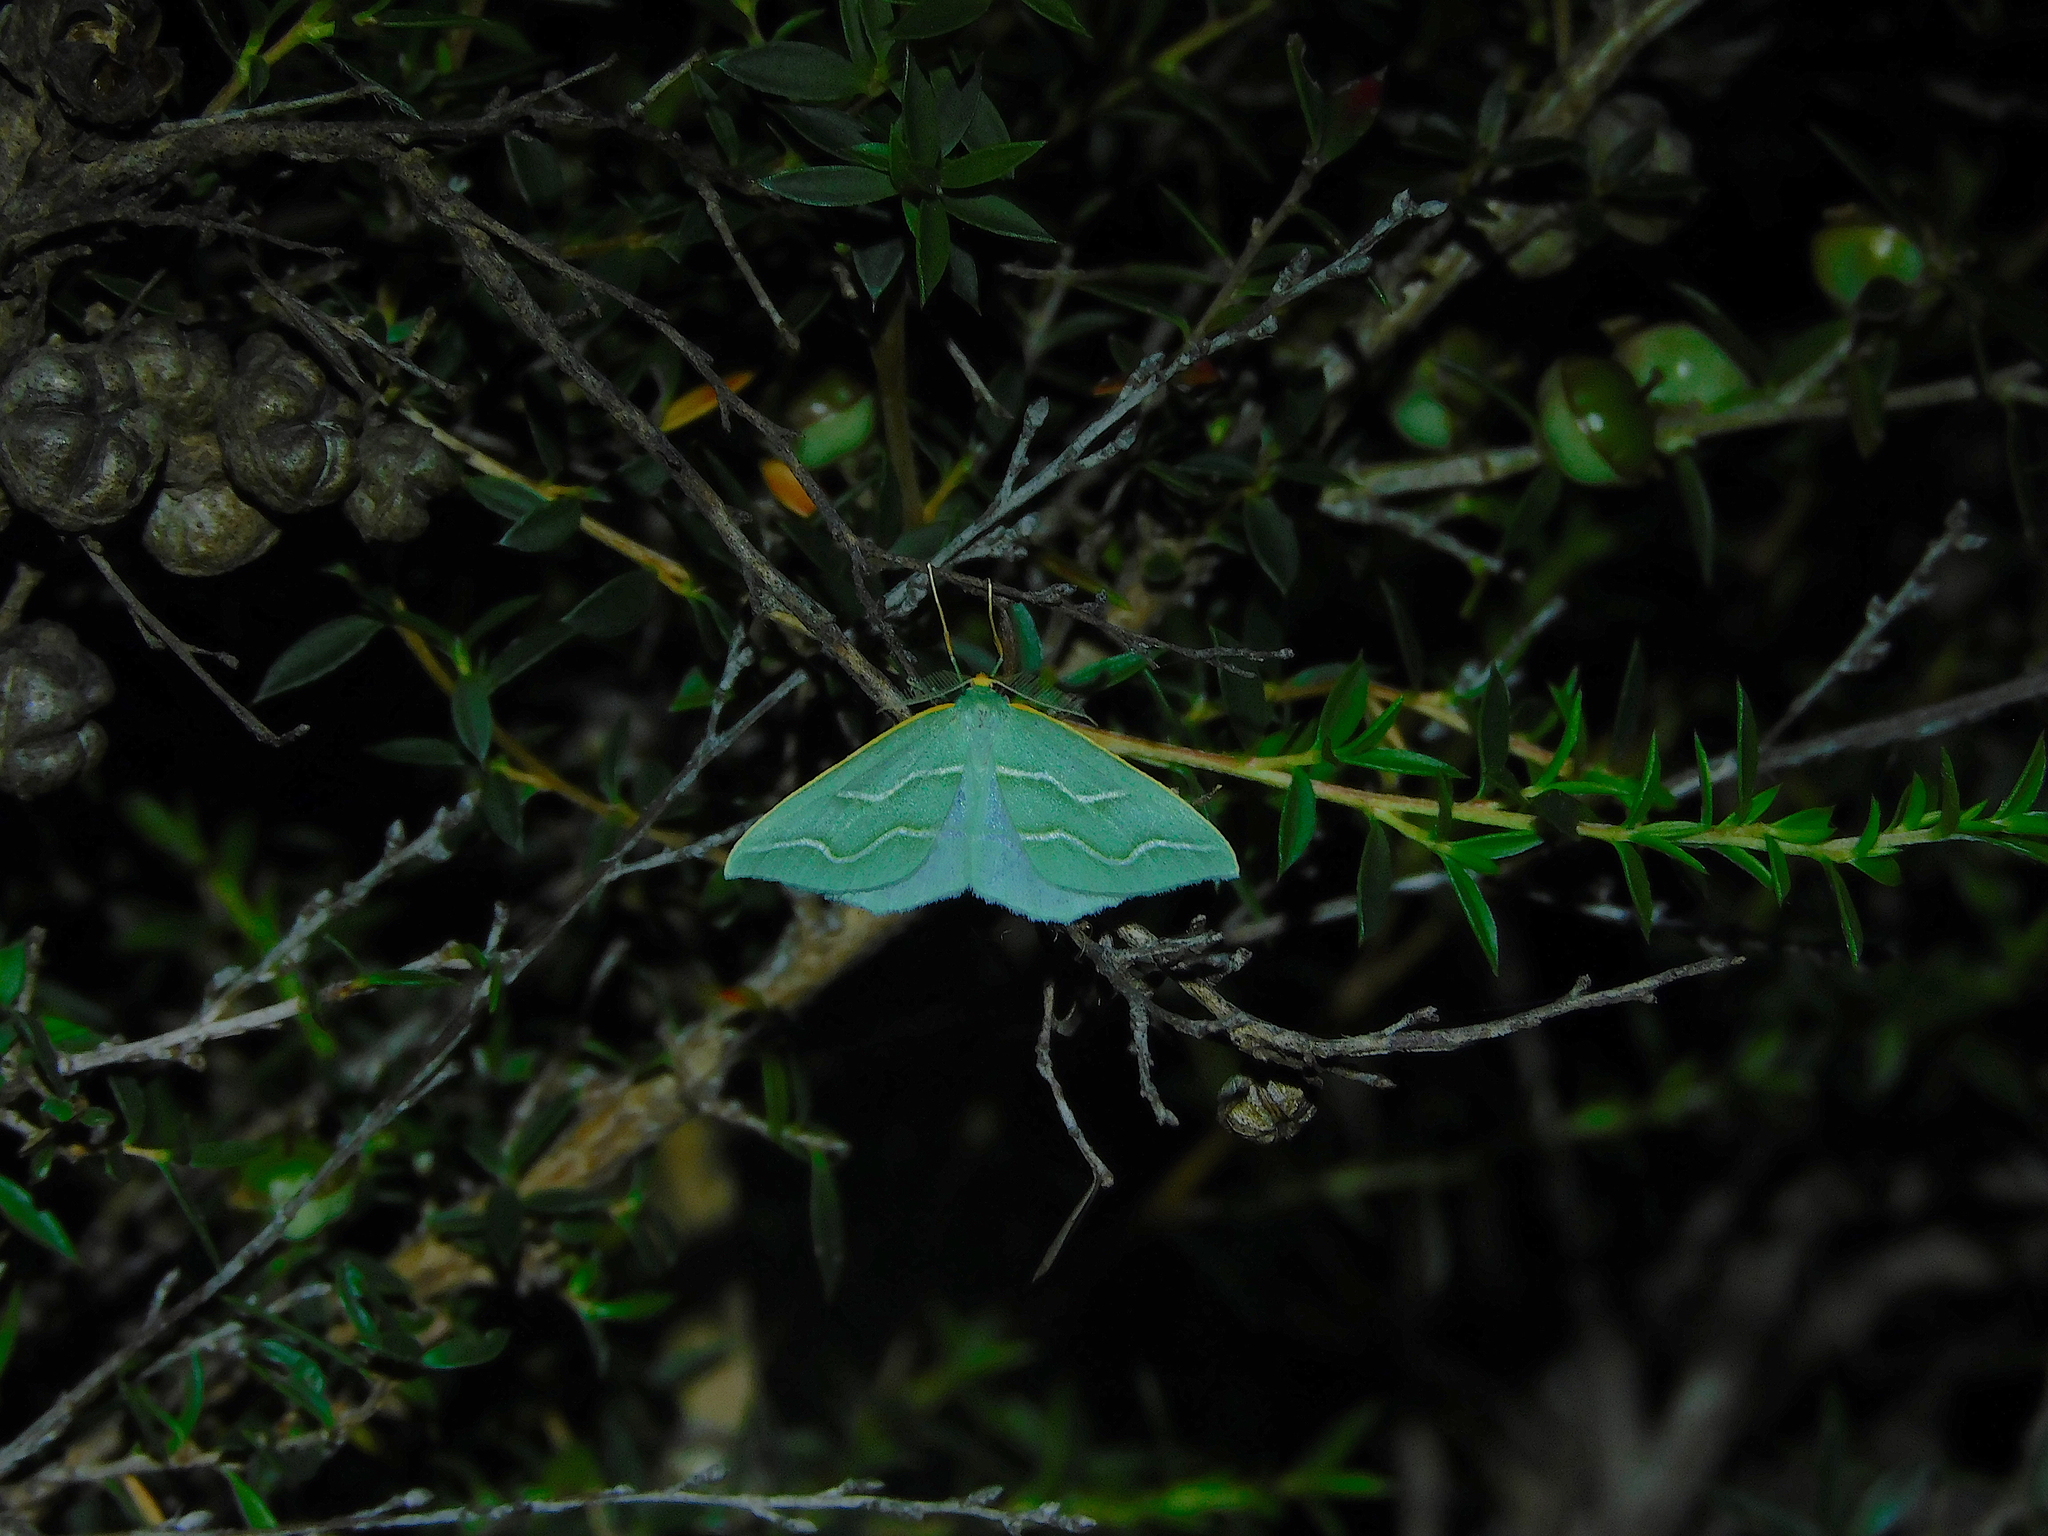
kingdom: Animalia
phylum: Arthropoda
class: Insecta
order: Lepidoptera
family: Geometridae
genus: Euloxia
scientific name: Euloxia meandraria
